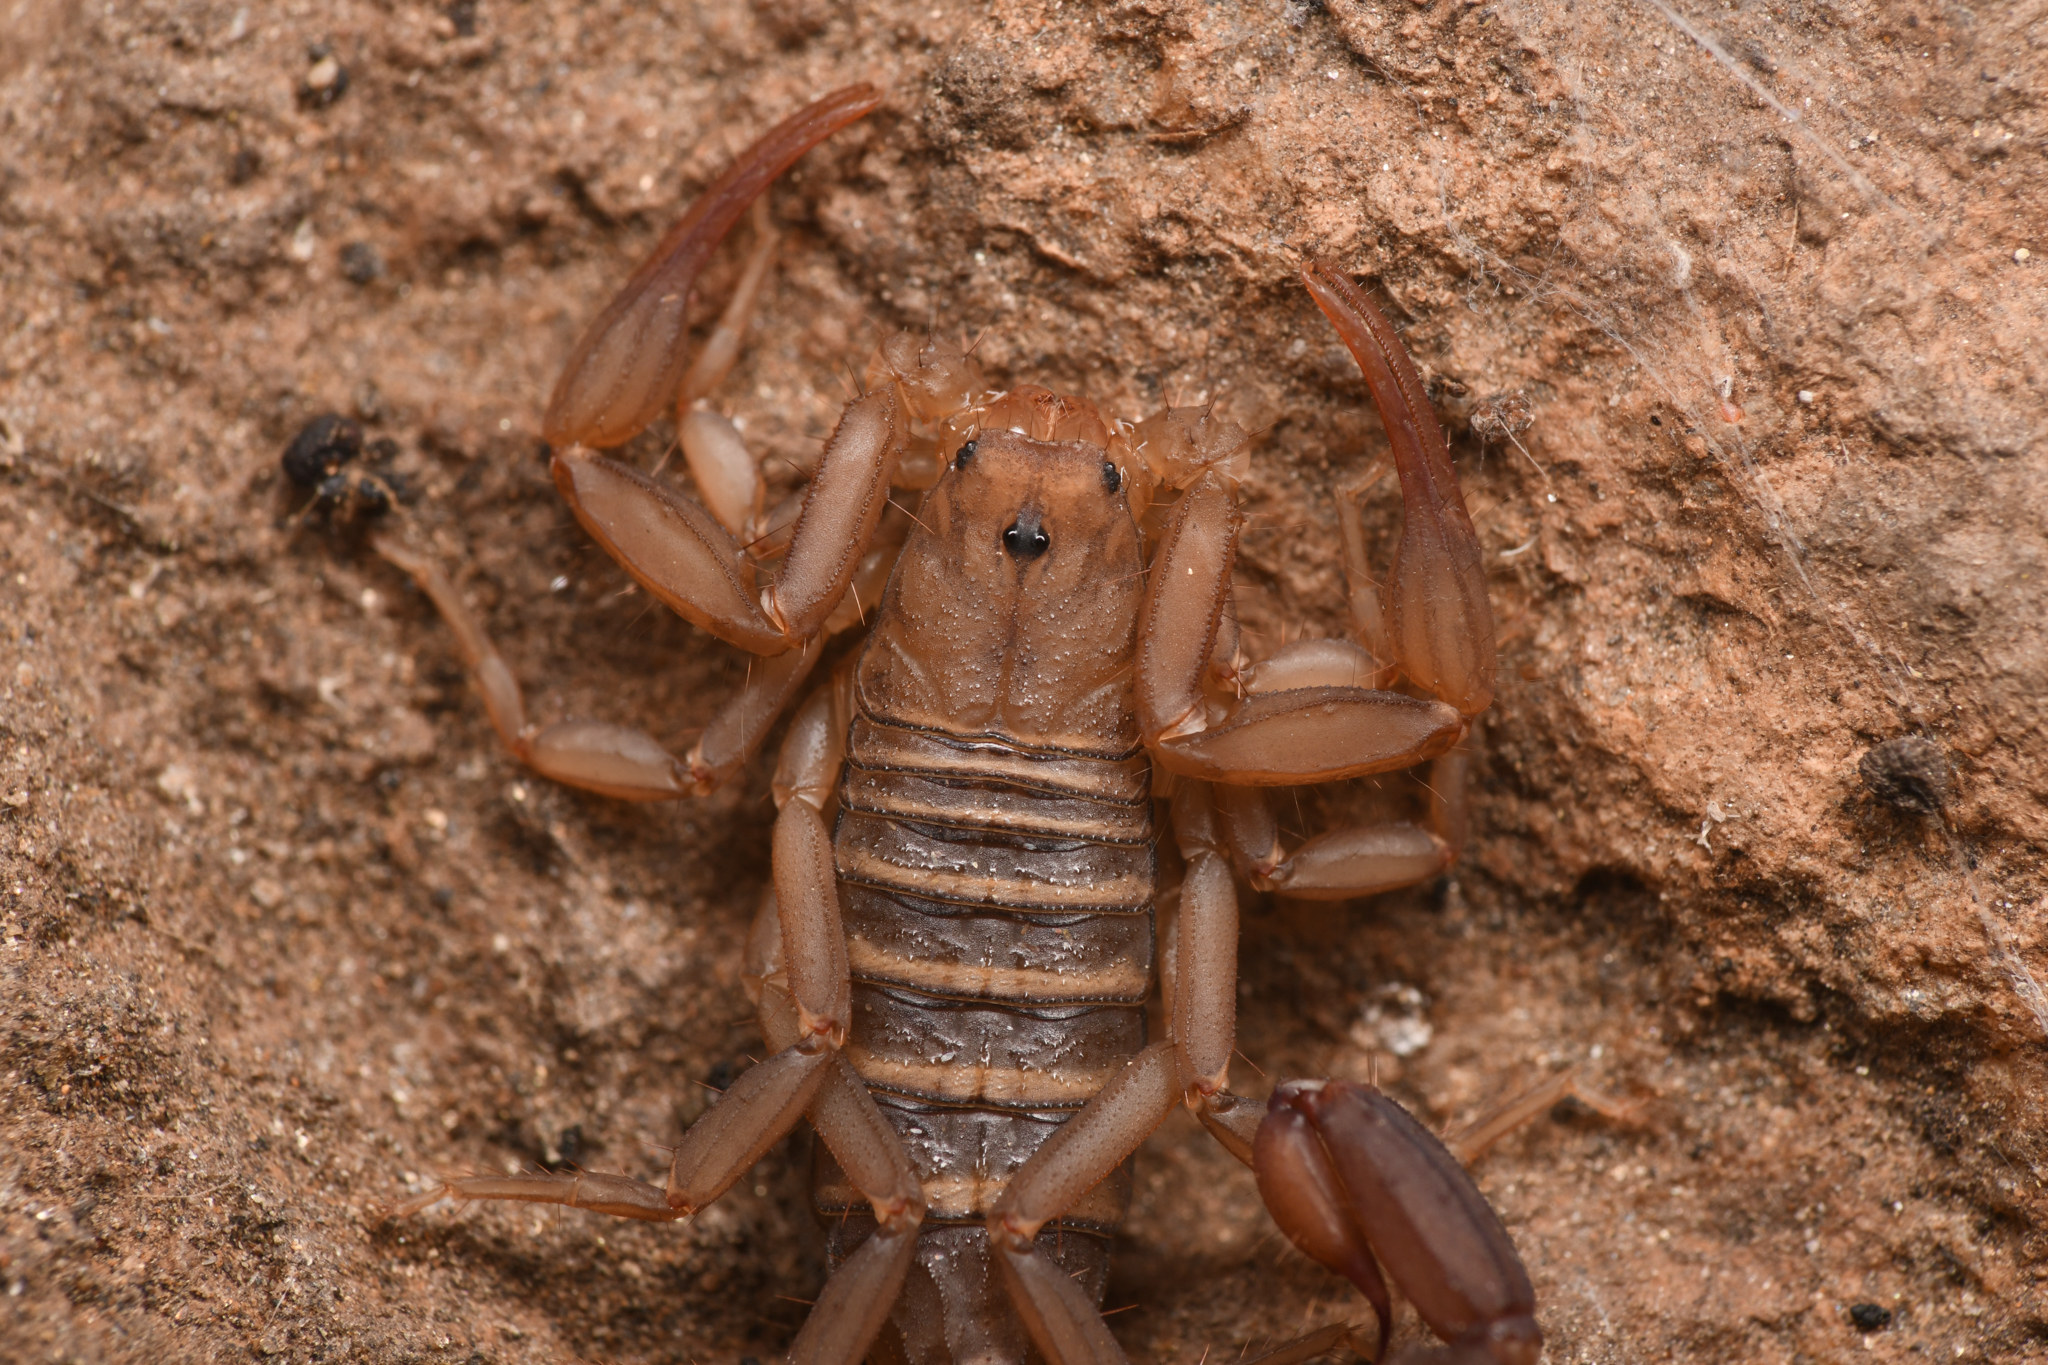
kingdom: Animalia
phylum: Arthropoda
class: Arachnida
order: Scorpiones
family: Vaejovidae
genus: Serradigitus
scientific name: Serradigitus gertschi
